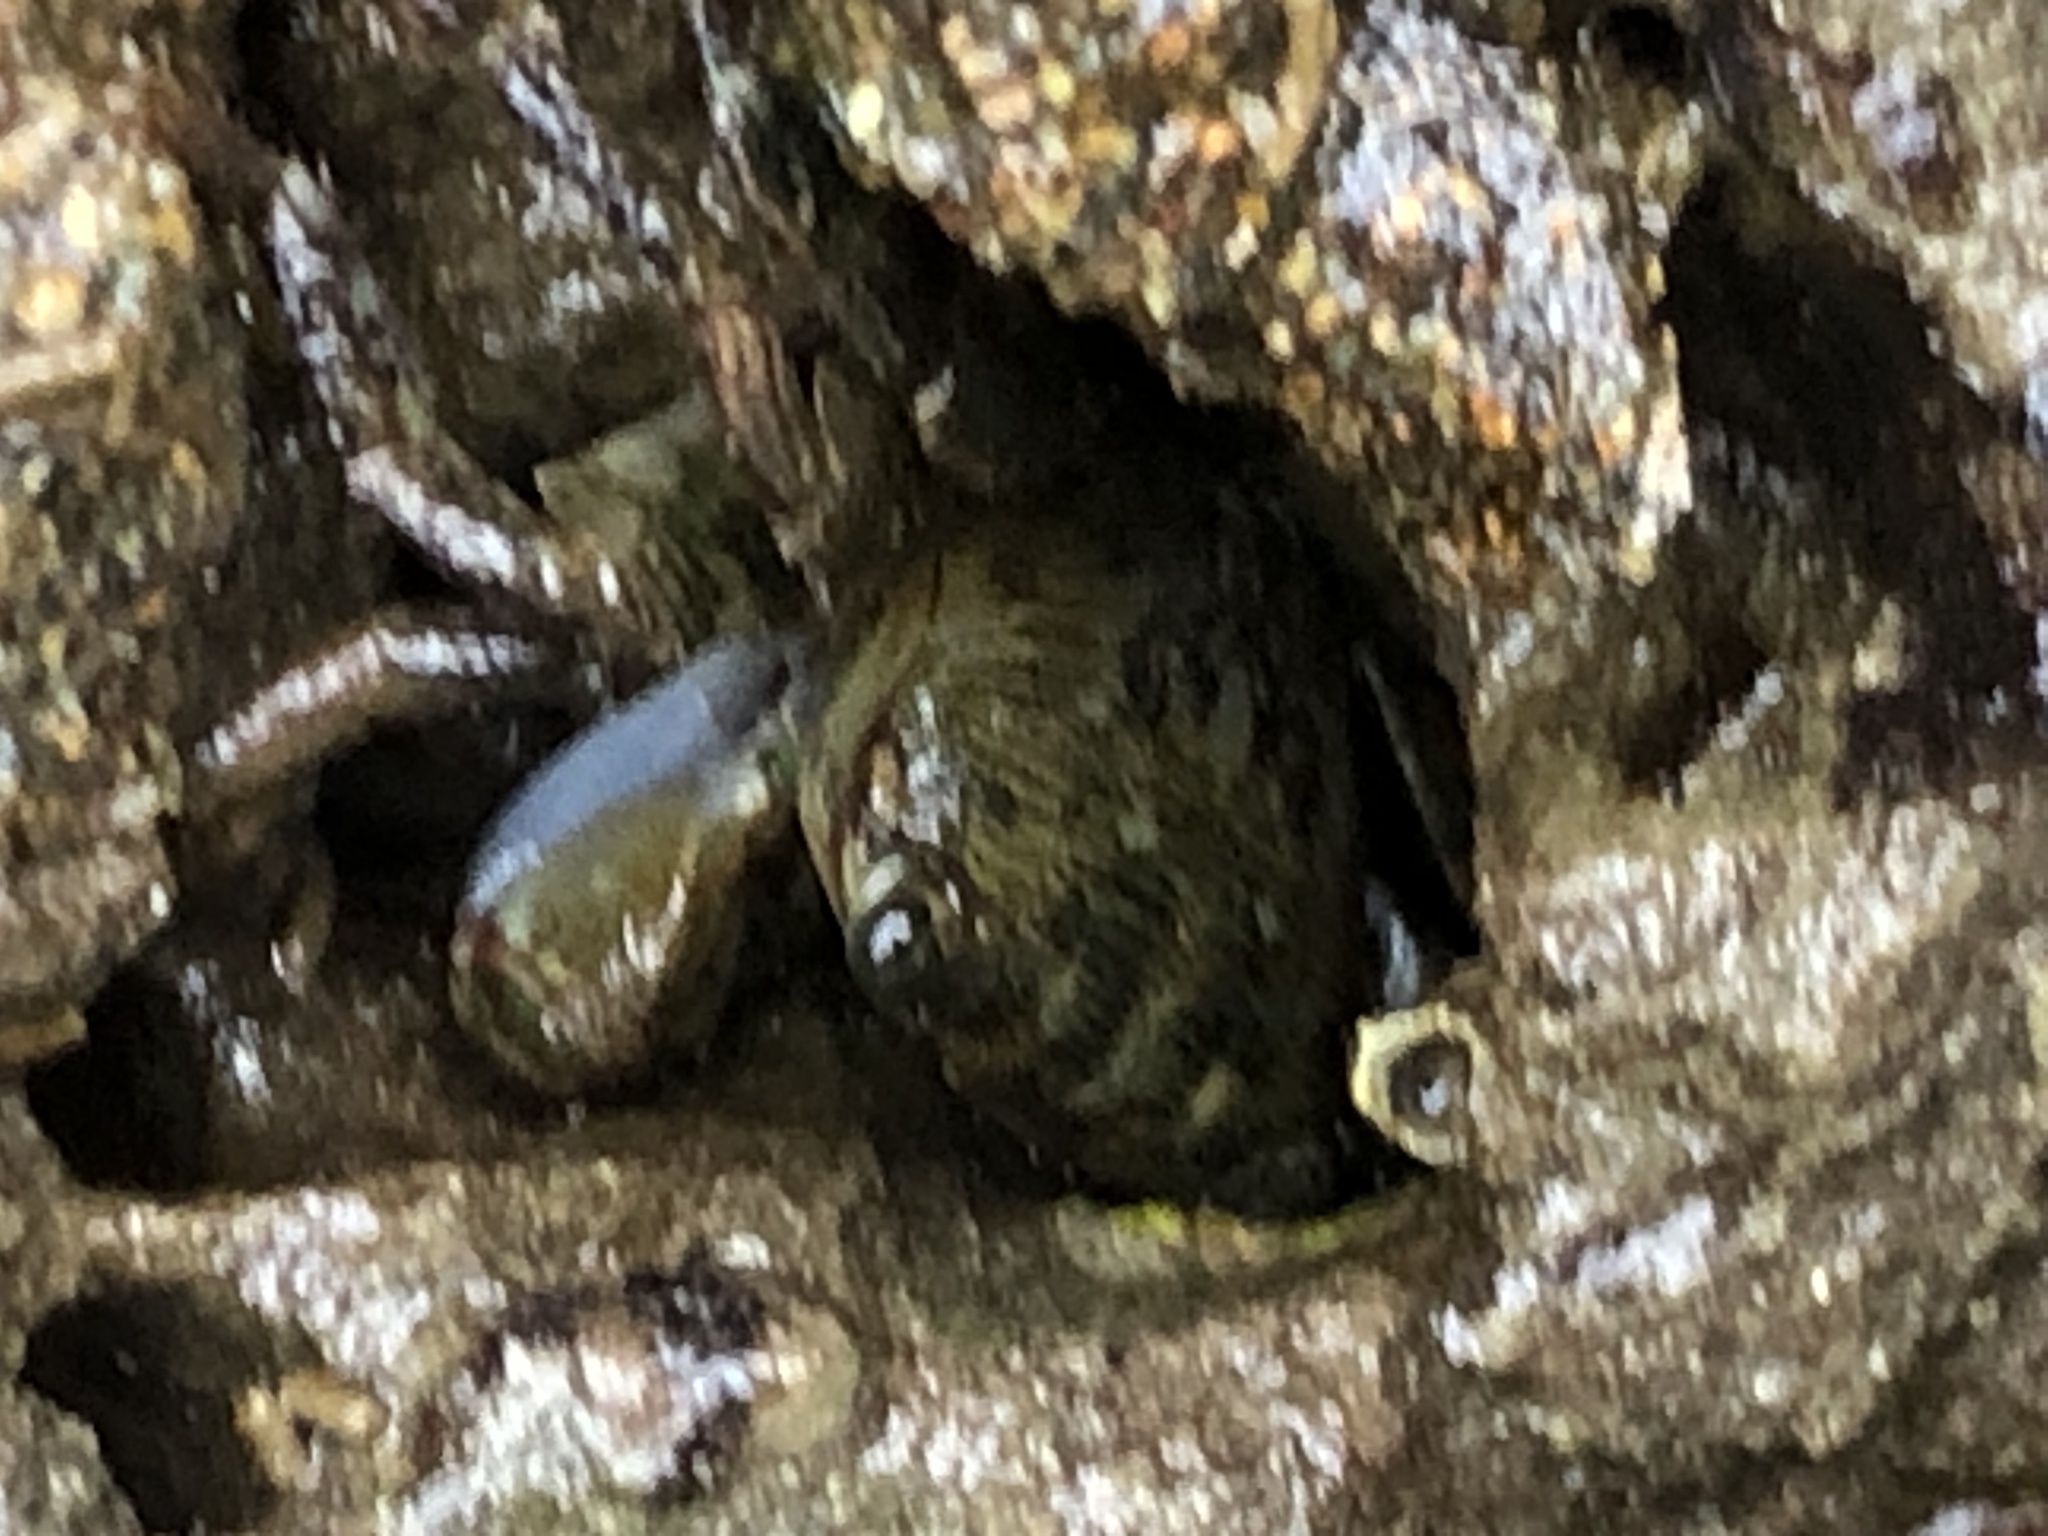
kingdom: Animalia
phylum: Arthropoda
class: Malacostraca
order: Decapoda
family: Grapsidae
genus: Pachygrapsus
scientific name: Pachygrapsus crassipes
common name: Striped shore crab
